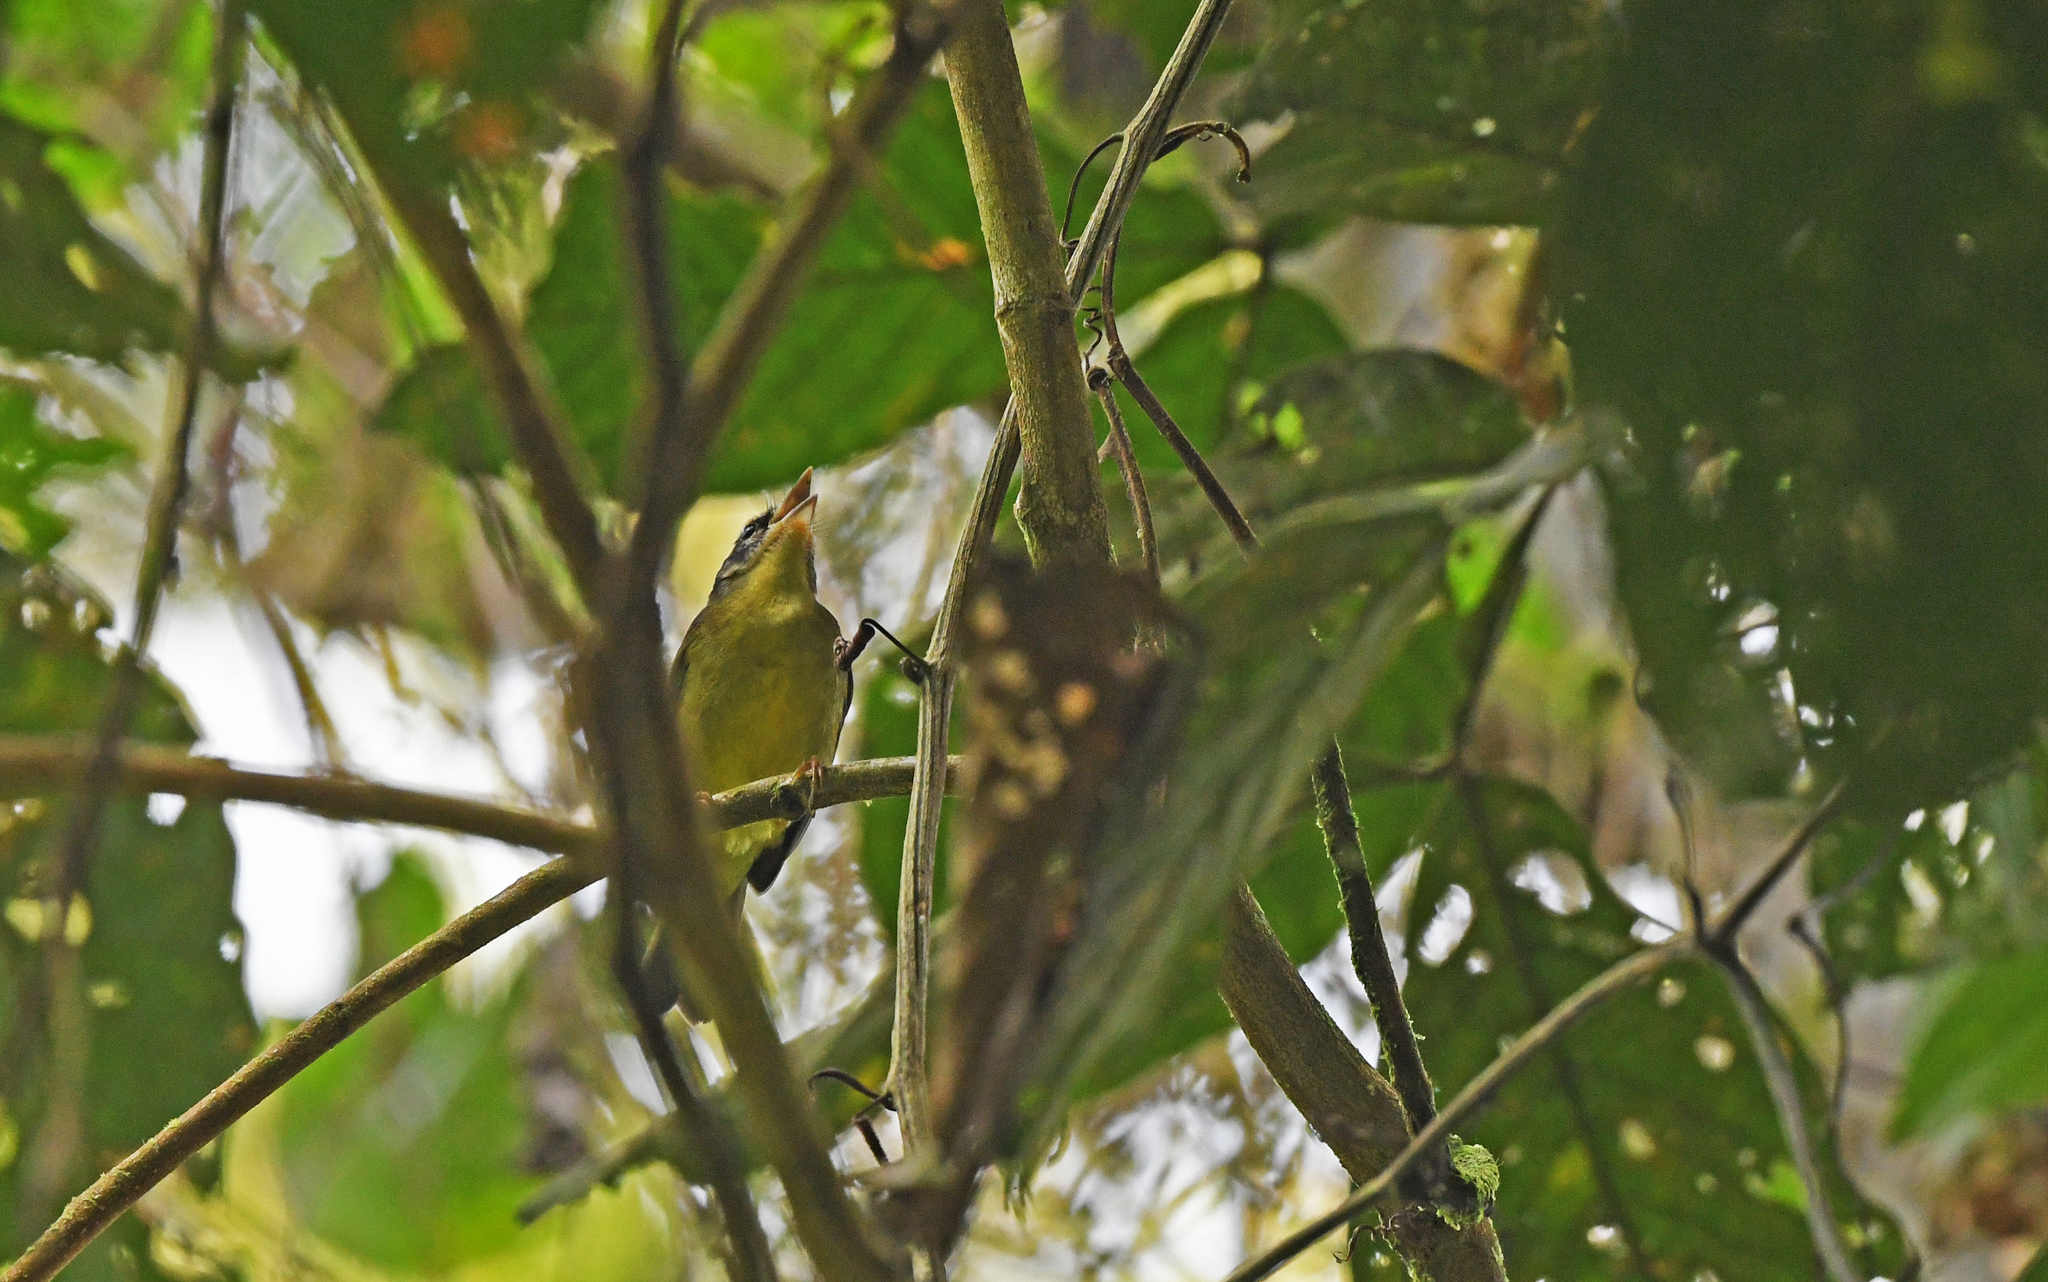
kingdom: Animalia
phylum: Chordata
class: Aves
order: Passeriformes
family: Parulidae
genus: Basileuterus
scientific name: Basileuterus tristriatus
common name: Three-striped warbler
